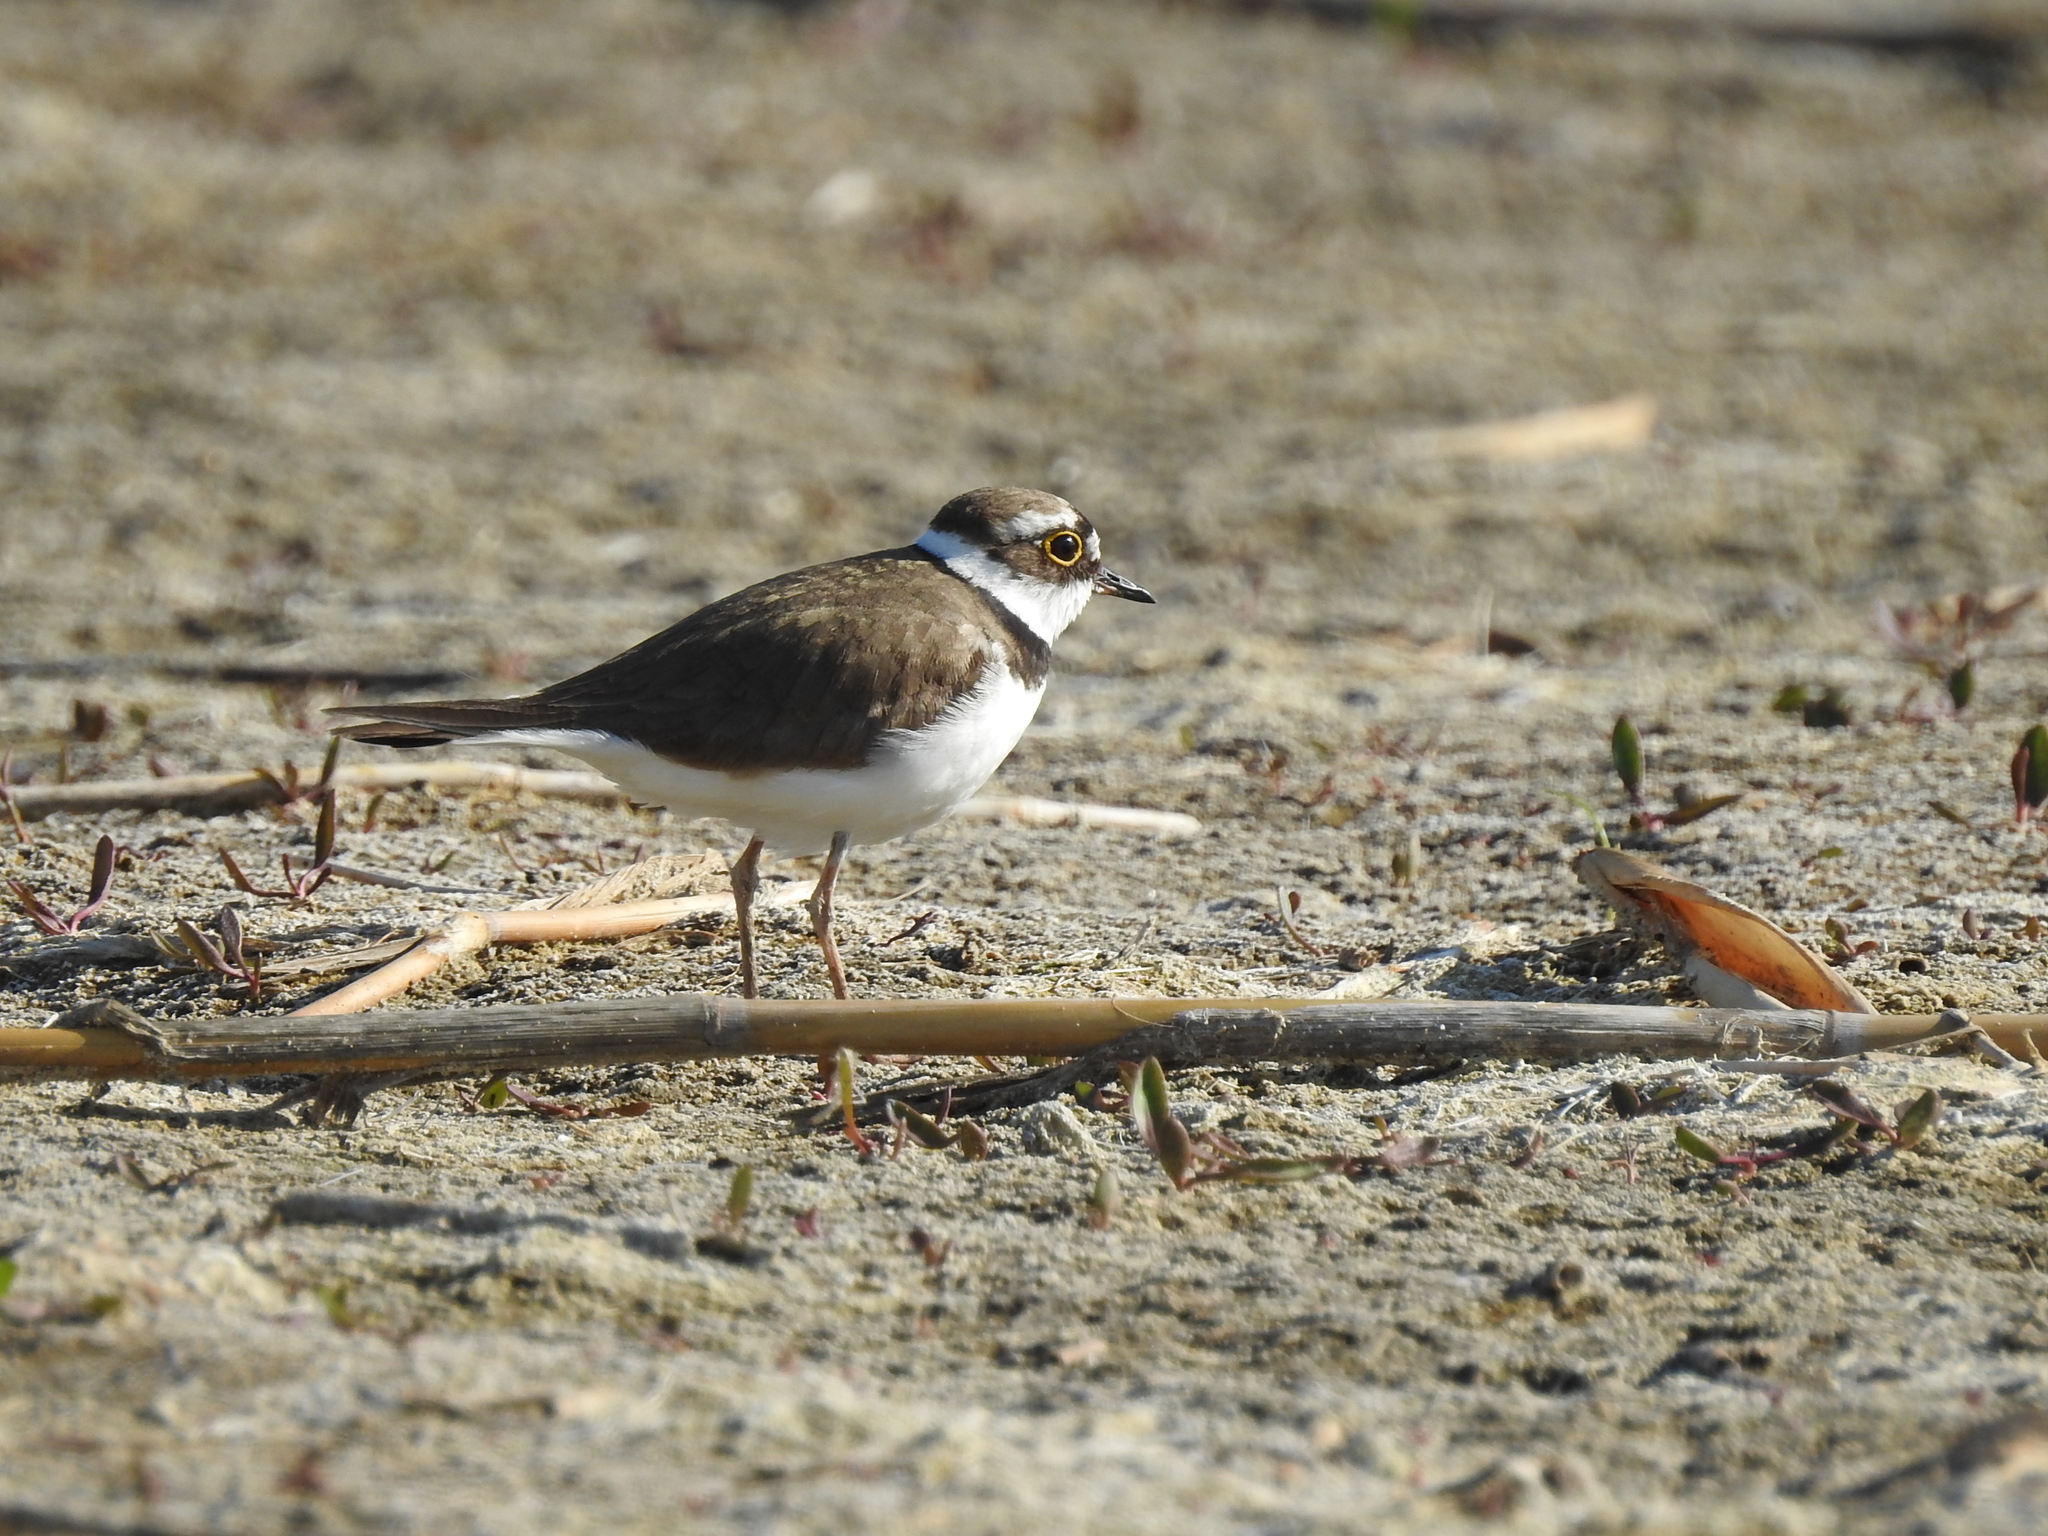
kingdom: Animalia
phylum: Chordata
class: Aves
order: Charadriiformes
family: Charadriidae
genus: Charadrius
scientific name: Charadrius dubius
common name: Little ringed plover
